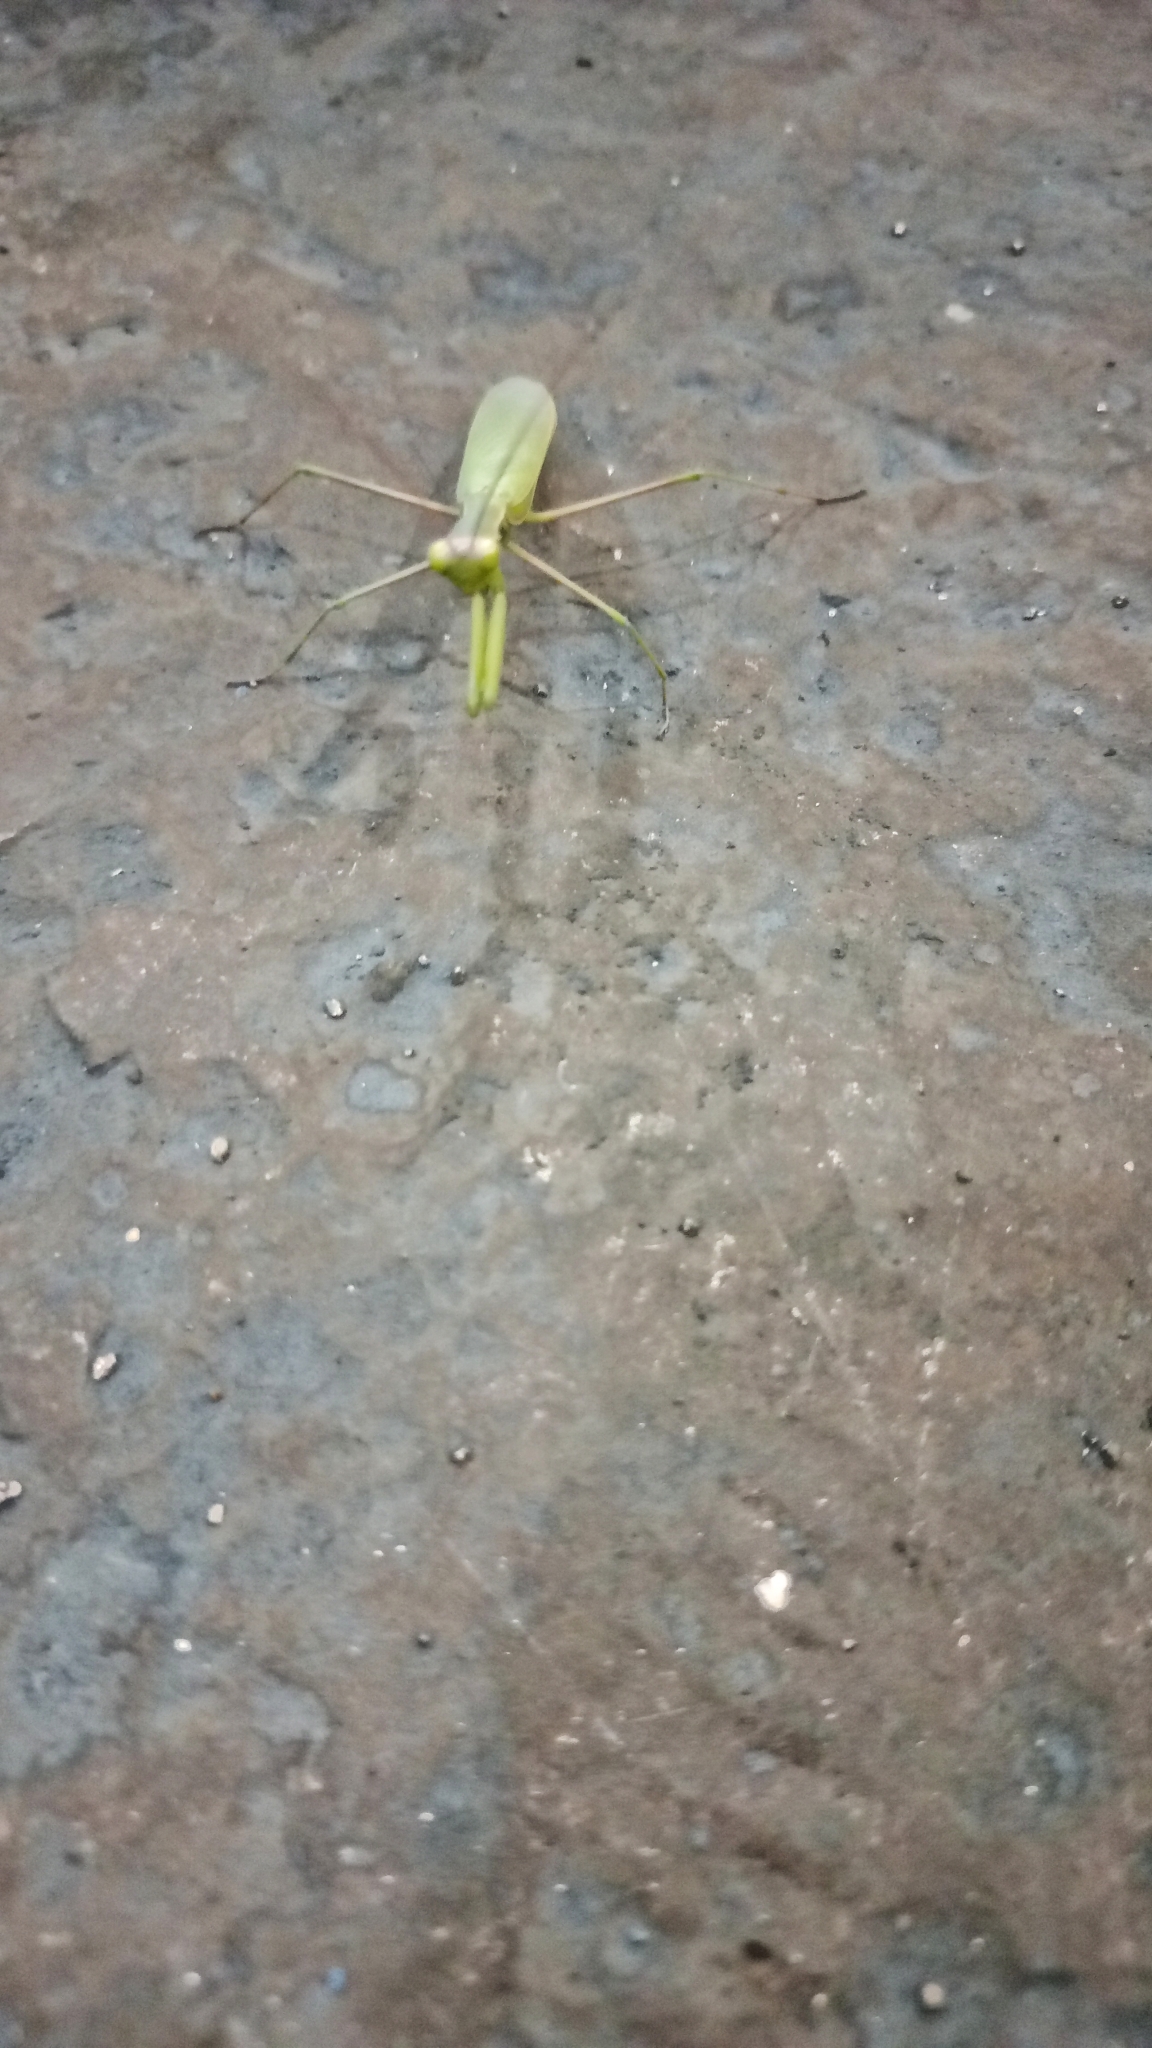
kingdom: Animalia
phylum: Arthropoda
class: Insecta
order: Mantodea
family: Mantidae
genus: Mantis
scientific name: Mantis religiosa
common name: Praying mantis
